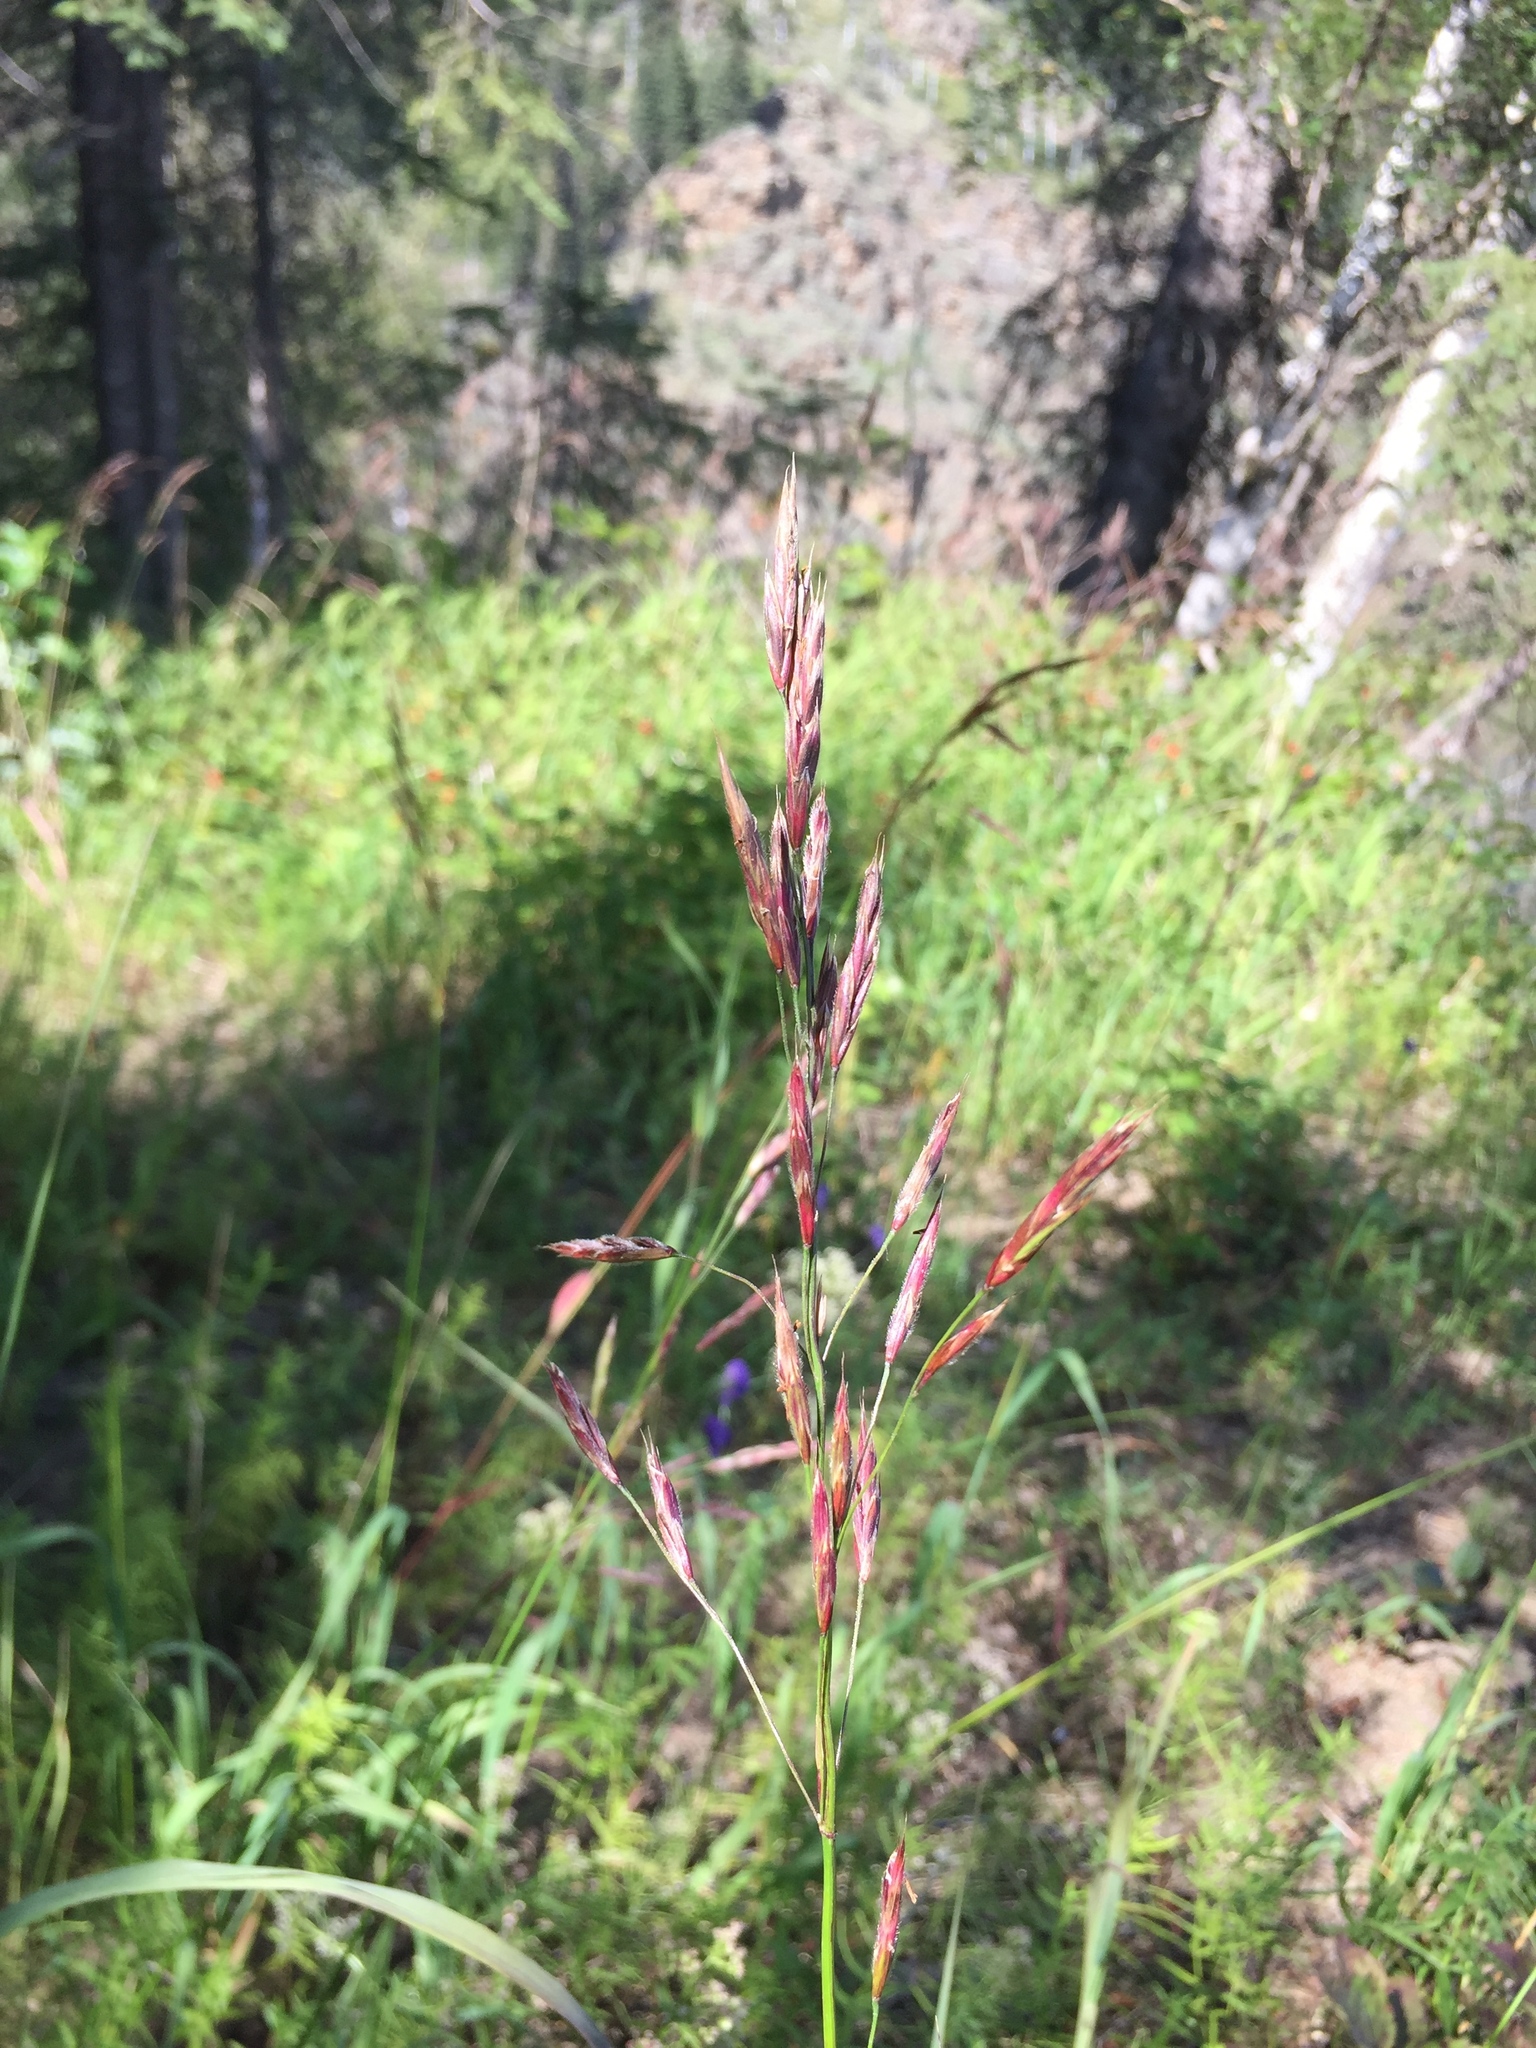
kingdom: Plantae
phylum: Tracheophyta
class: Liliopsida
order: Poales
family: Poaceae
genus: Bromus
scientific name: Bromus pumpellianus
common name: Pumpelly's brome
